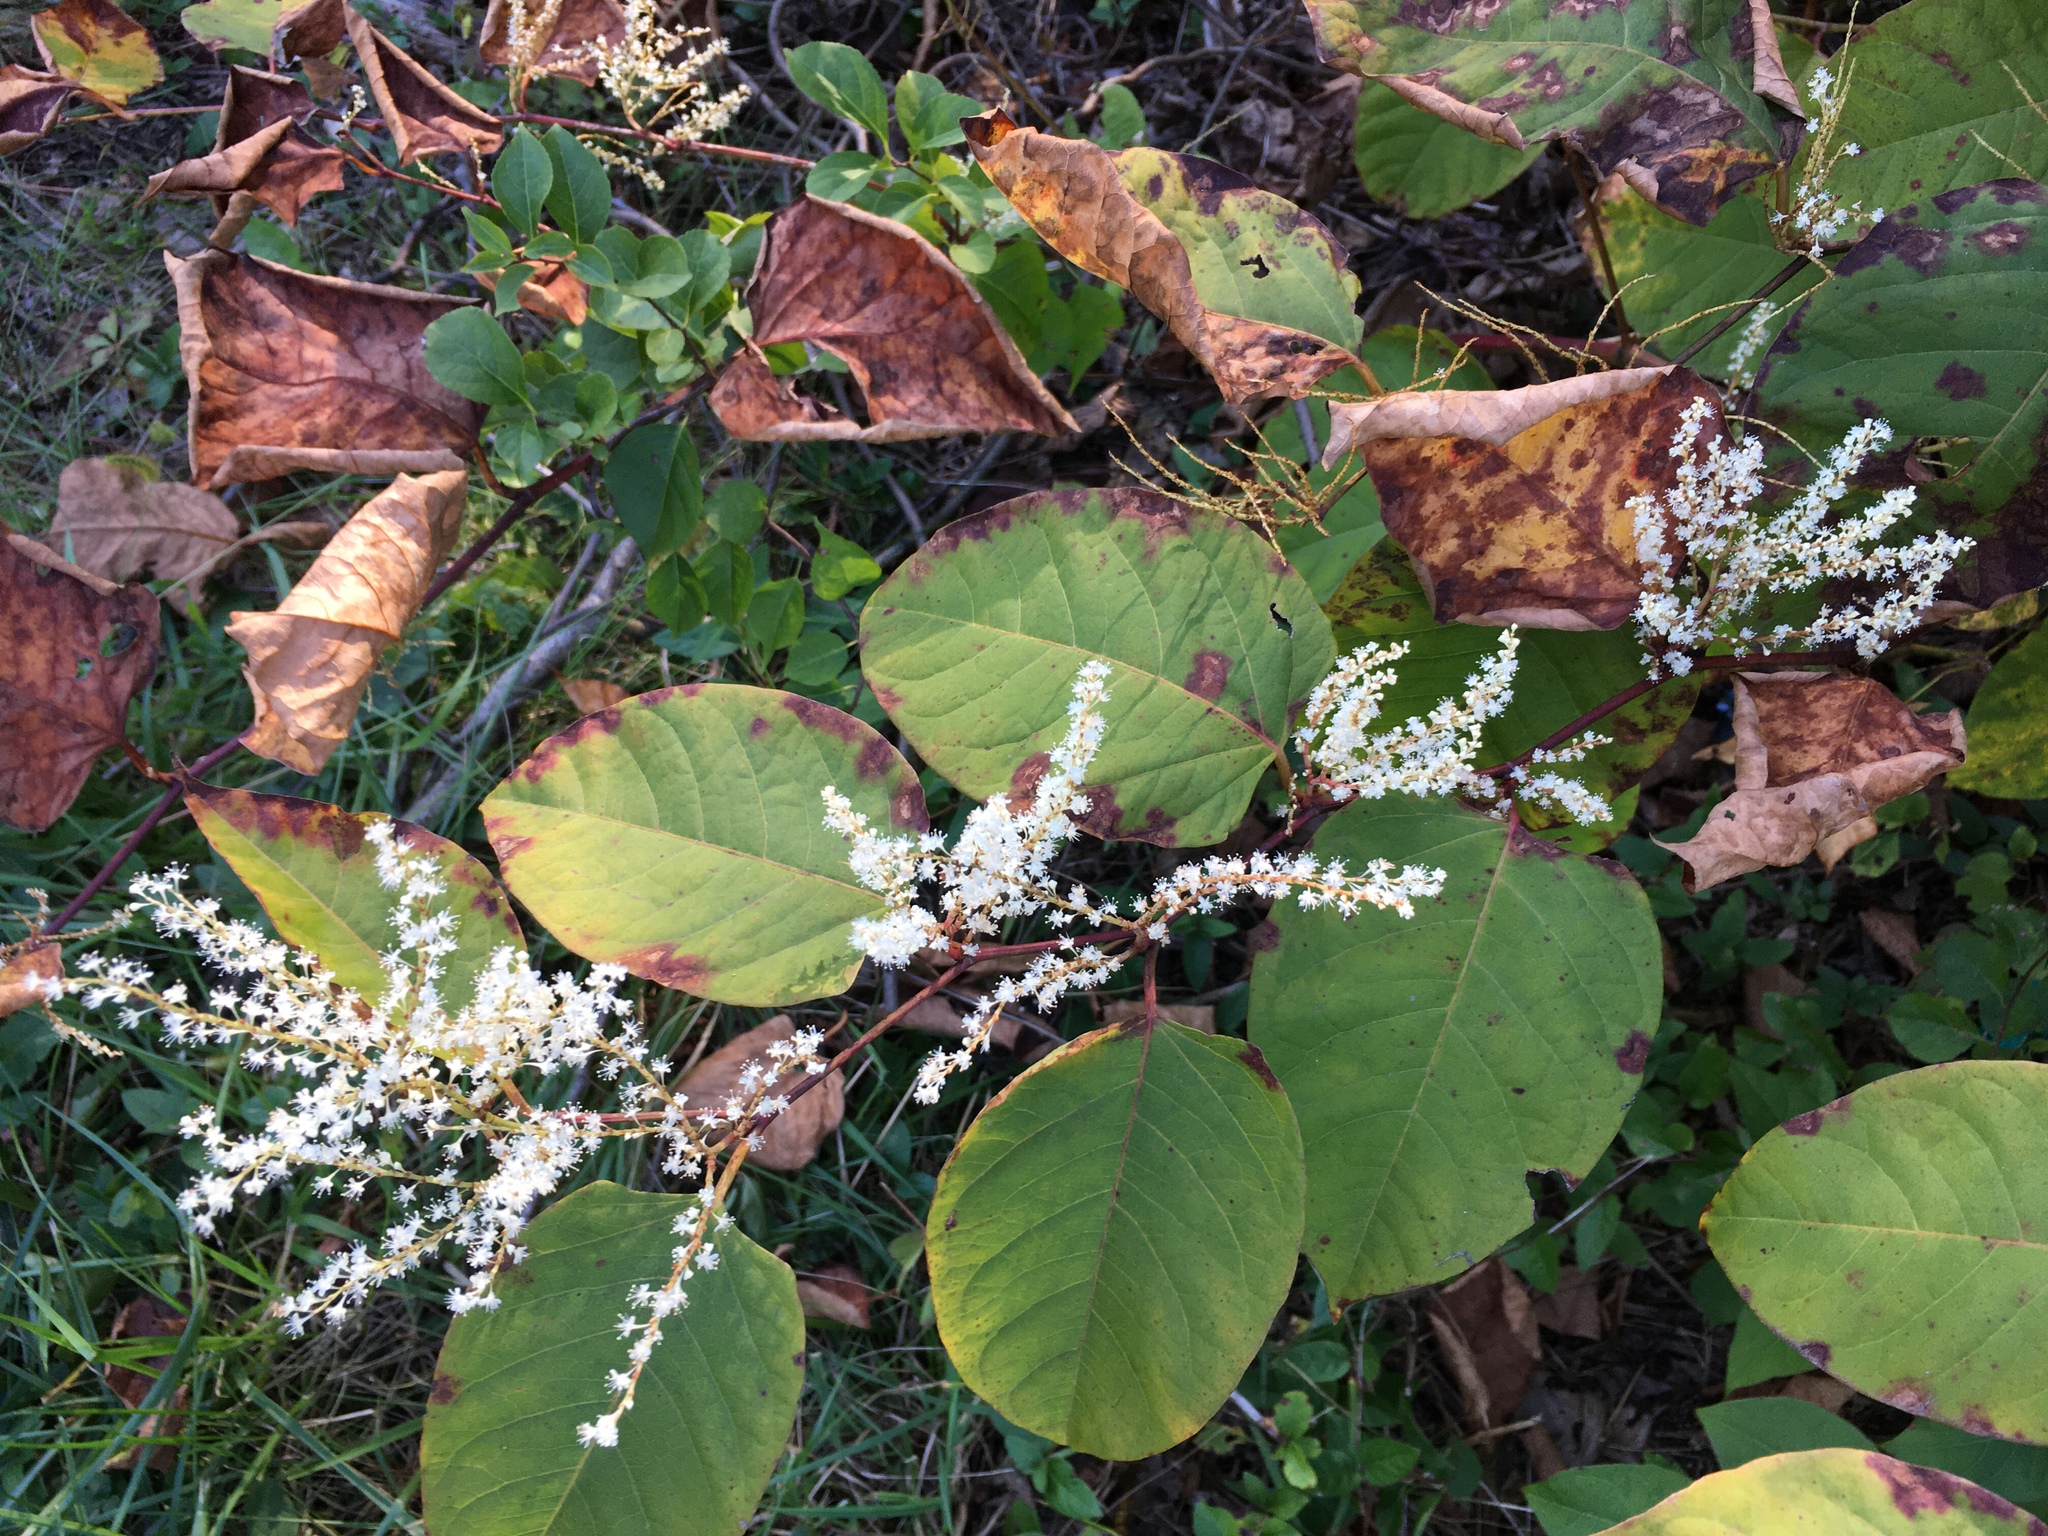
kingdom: Plantae
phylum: Tracheophyta
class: Magnoliopsida
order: Caryophyllales
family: Polygonaceae
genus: Reynoutria
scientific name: Reynoutria japonica
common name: Japanese knotweed
